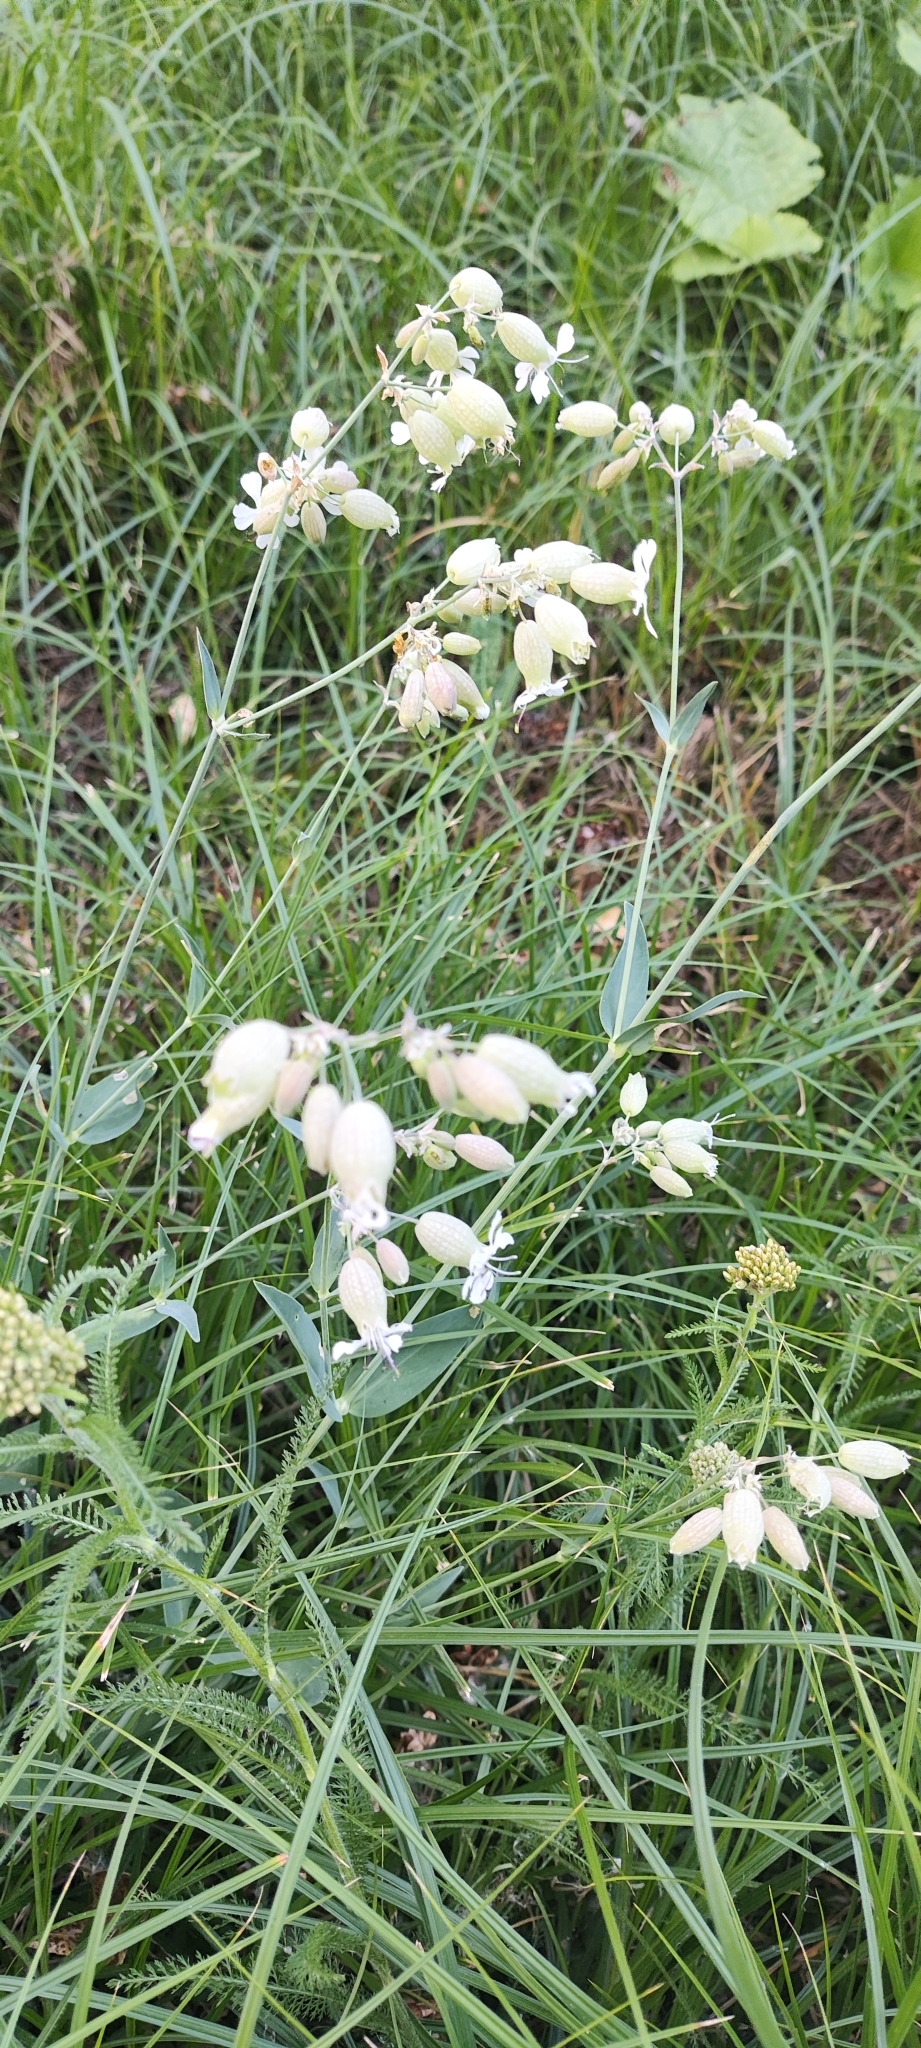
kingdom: Plantae
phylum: Tracheophyta
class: Magnoliopsida
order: Caryophyllales
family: Caryophyllaceae
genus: Silene
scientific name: Silene vulgaris
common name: Bladder campion
